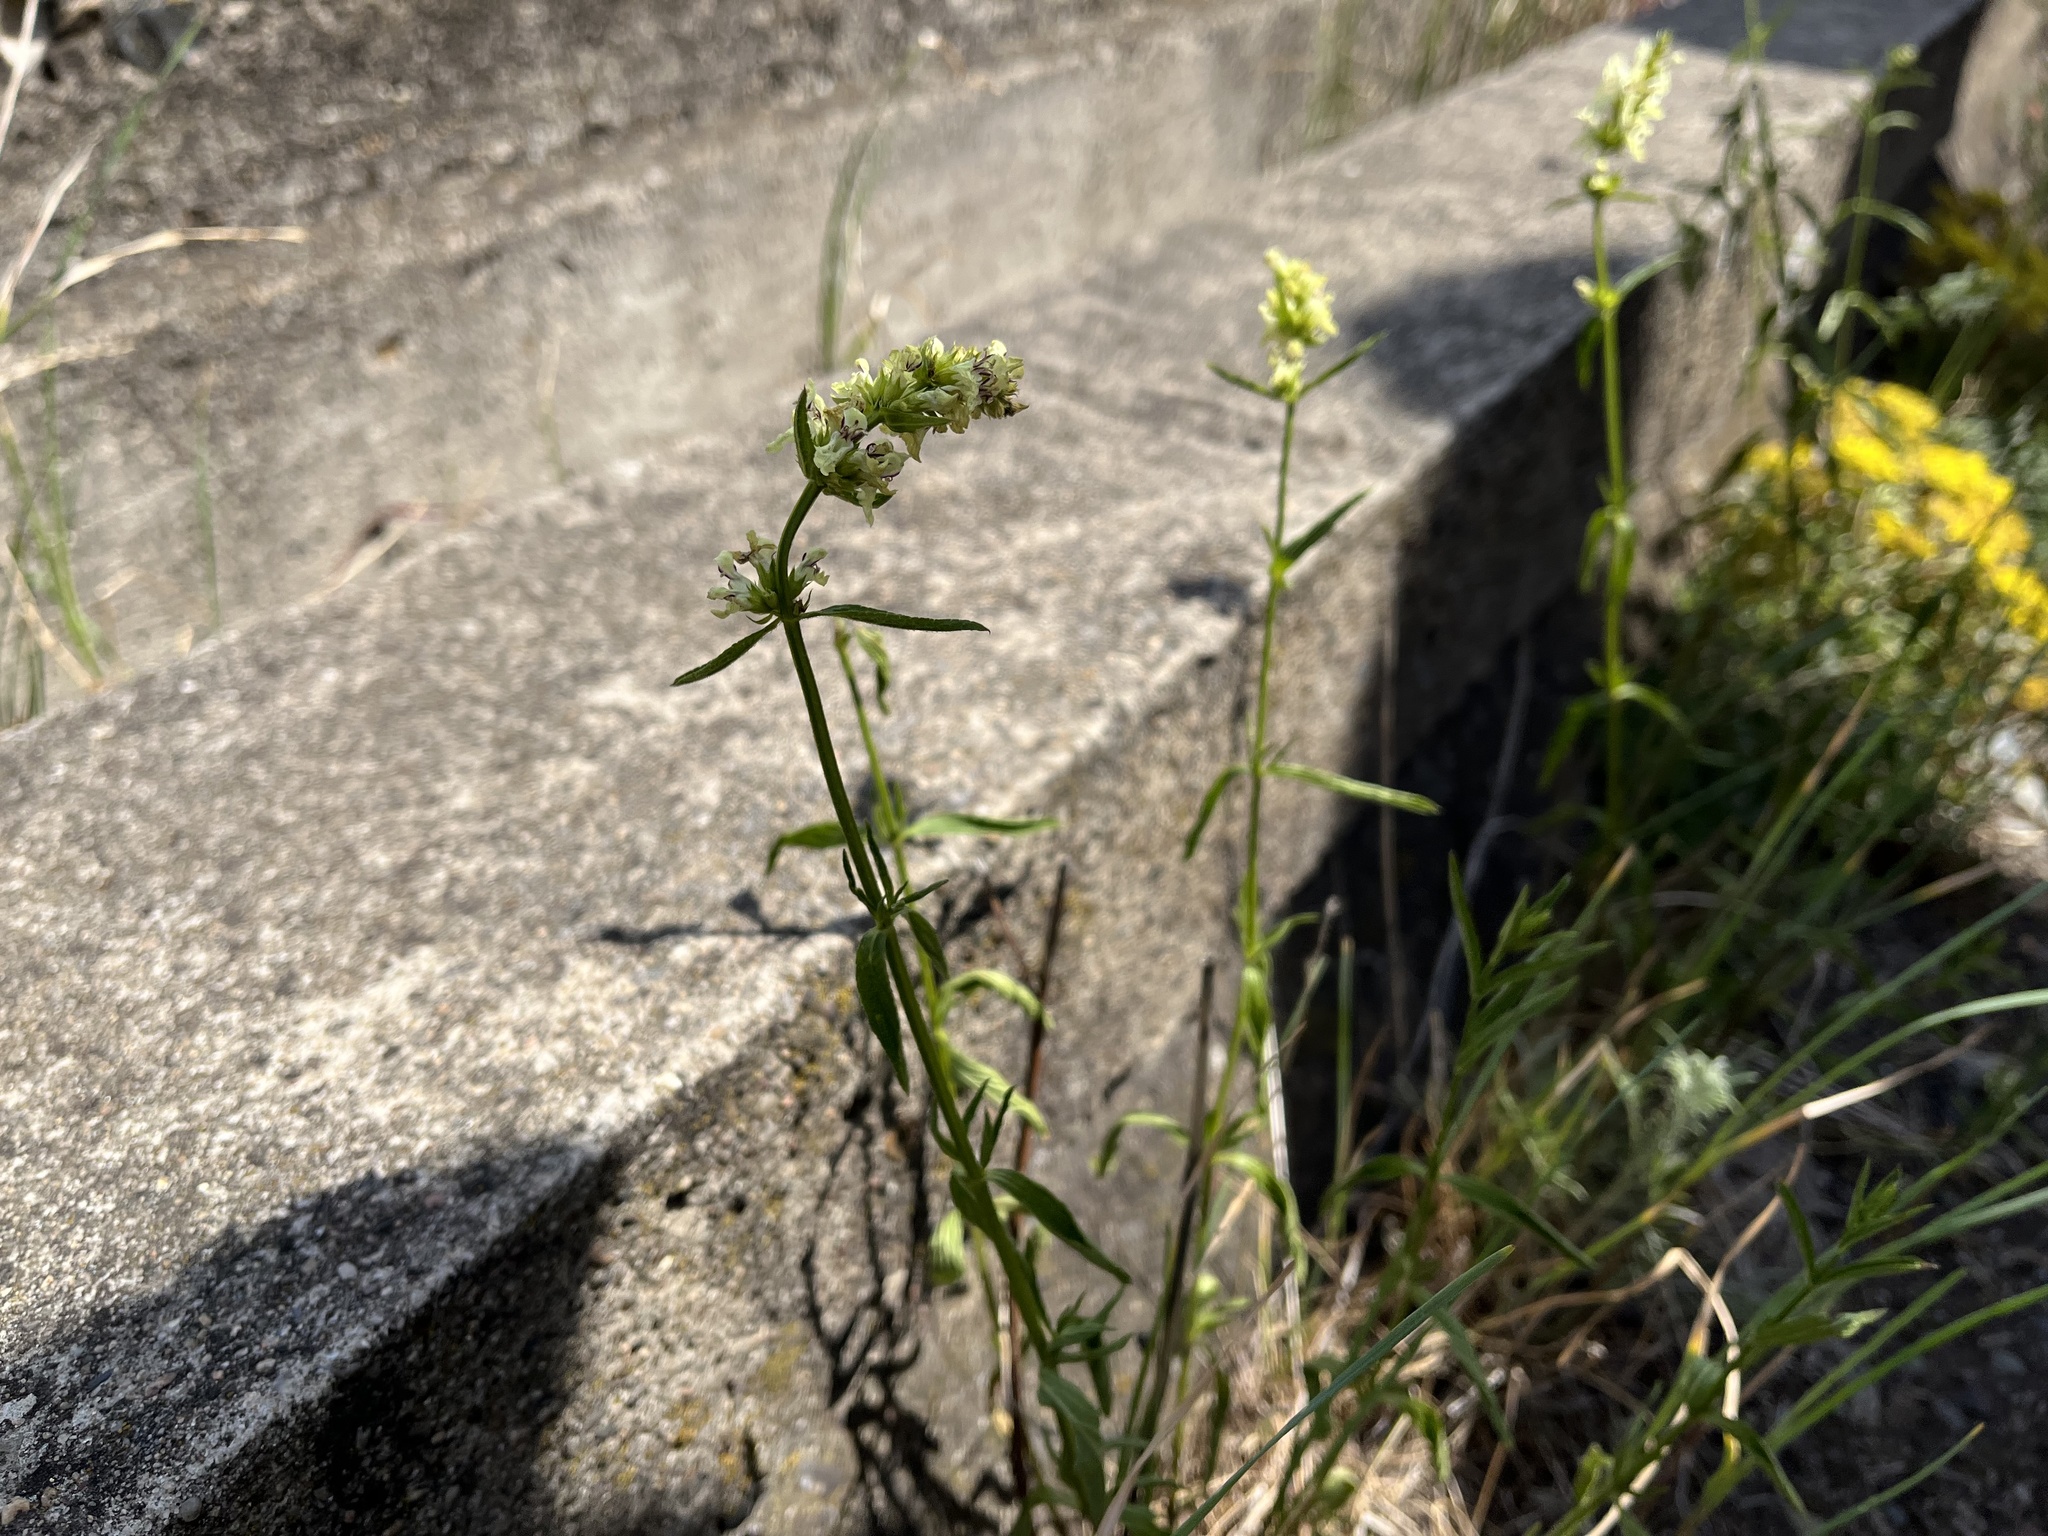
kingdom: Plantae
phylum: Tracheophyta
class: Magnoliopsida
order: Lamiales
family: Lamiaceae
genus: Stachys
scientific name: Stachys recta
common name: Perennial yellow-woundwort
